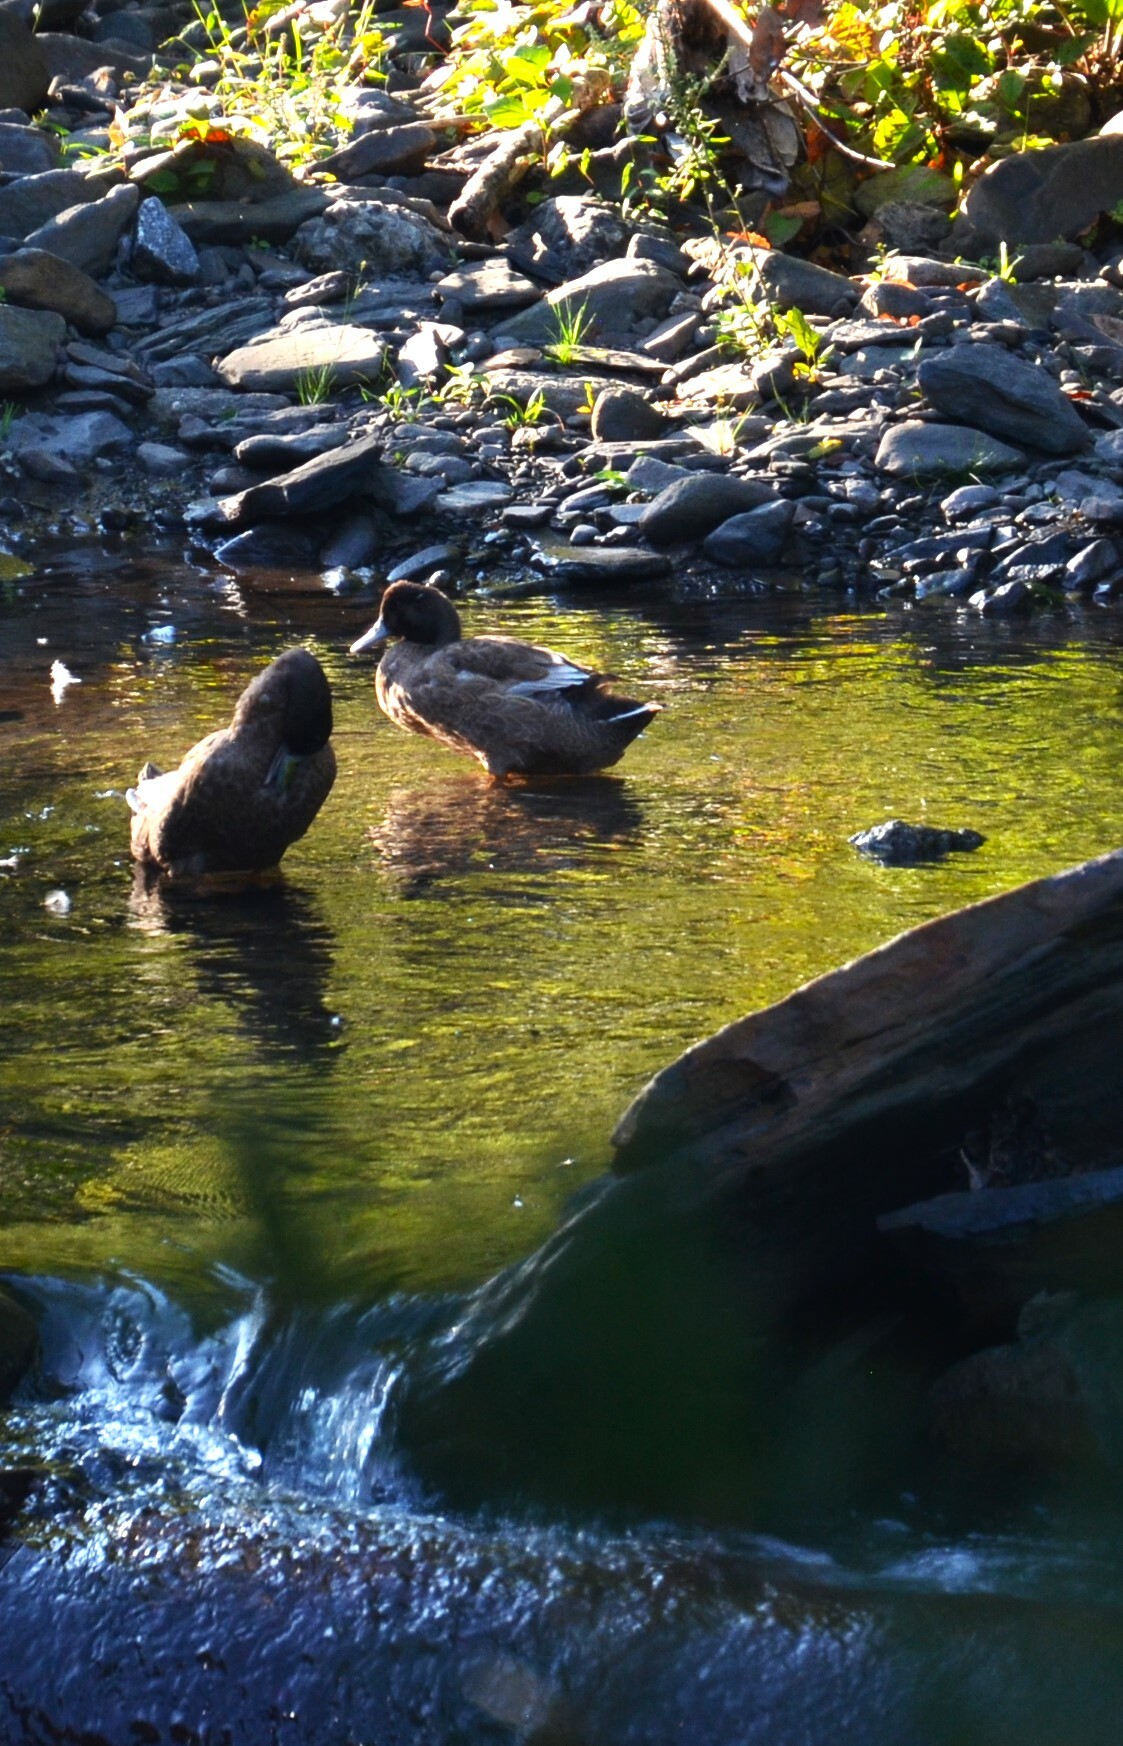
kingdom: Animalia
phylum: Chordata
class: Aves
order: Anseriformes
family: Anatidae
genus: Anas
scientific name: Anas platyrhynchos
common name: Mallard
